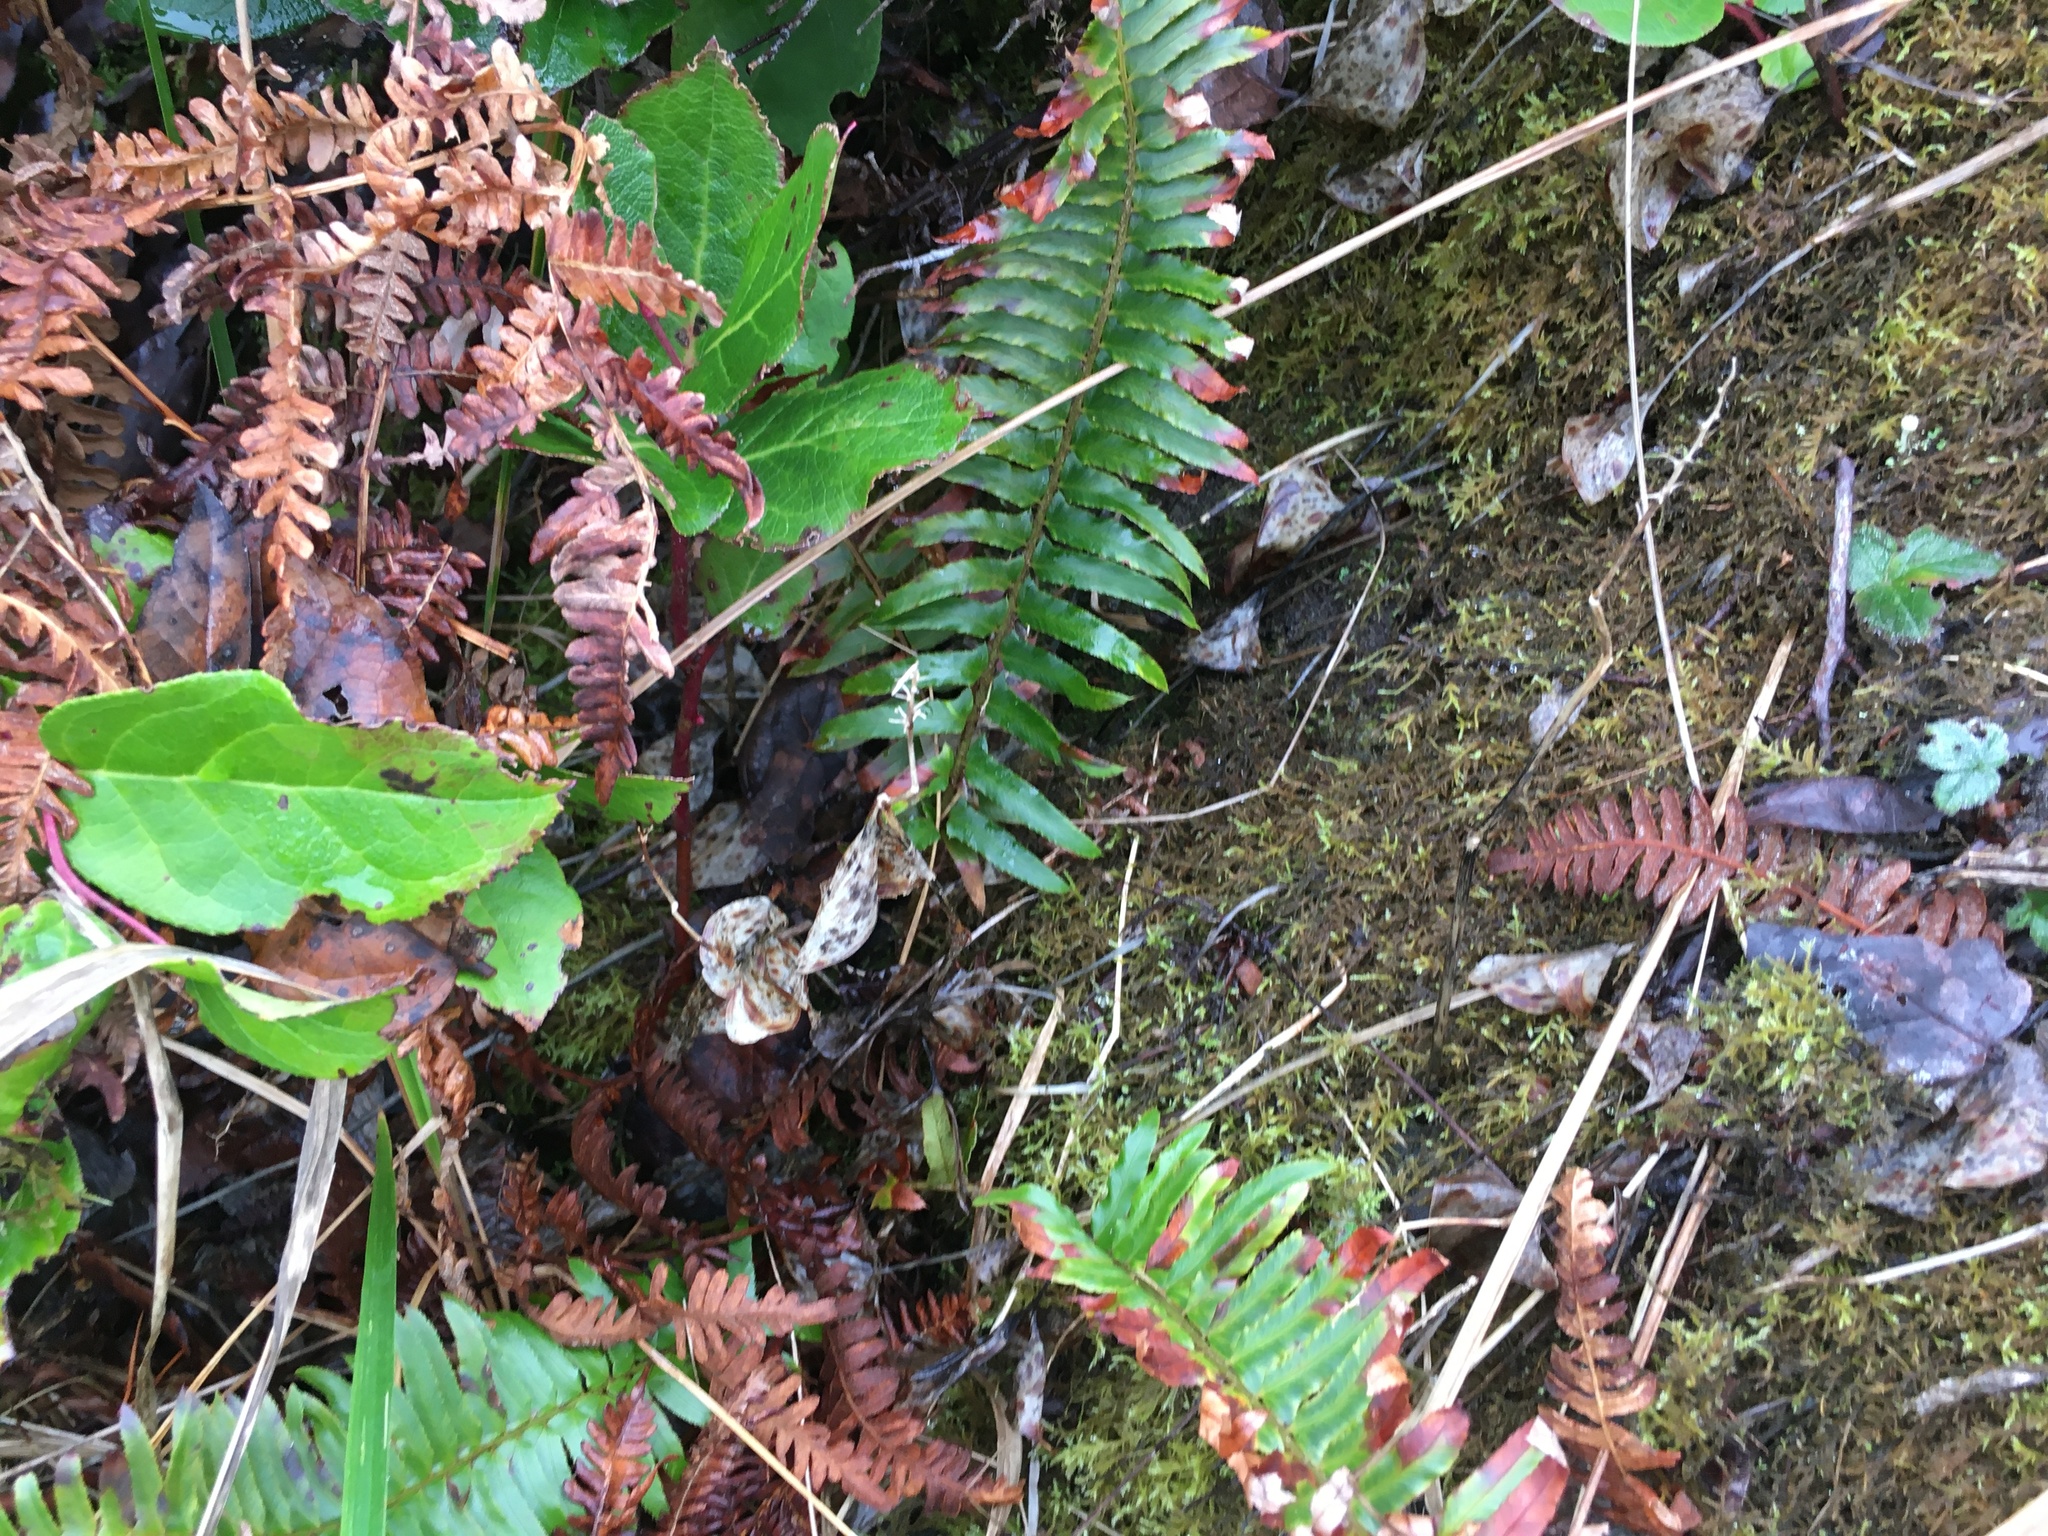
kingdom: Plantae
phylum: Tracheophyta
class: Polypodiopsida
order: Polypodiales
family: Dryopteridaceae
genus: Polystichum
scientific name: Polystichum munitum
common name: Western sword-fern
